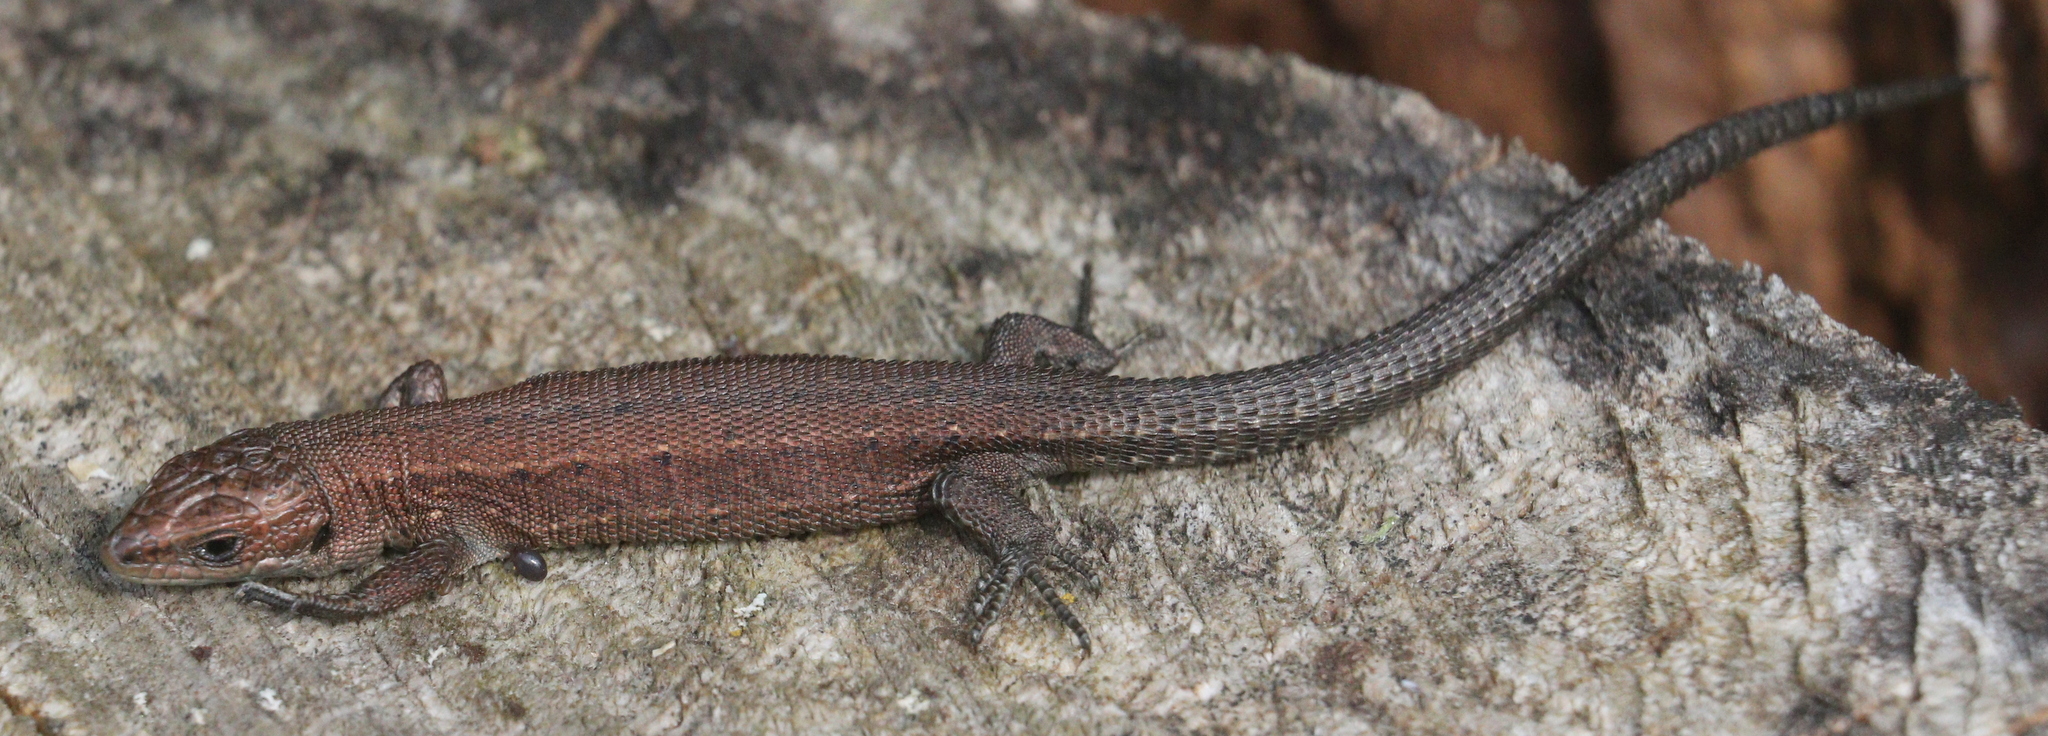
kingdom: Animalia
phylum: Chordata
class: Squamata
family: Lacertidae
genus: Zootoca
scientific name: Zootoca vivipara
